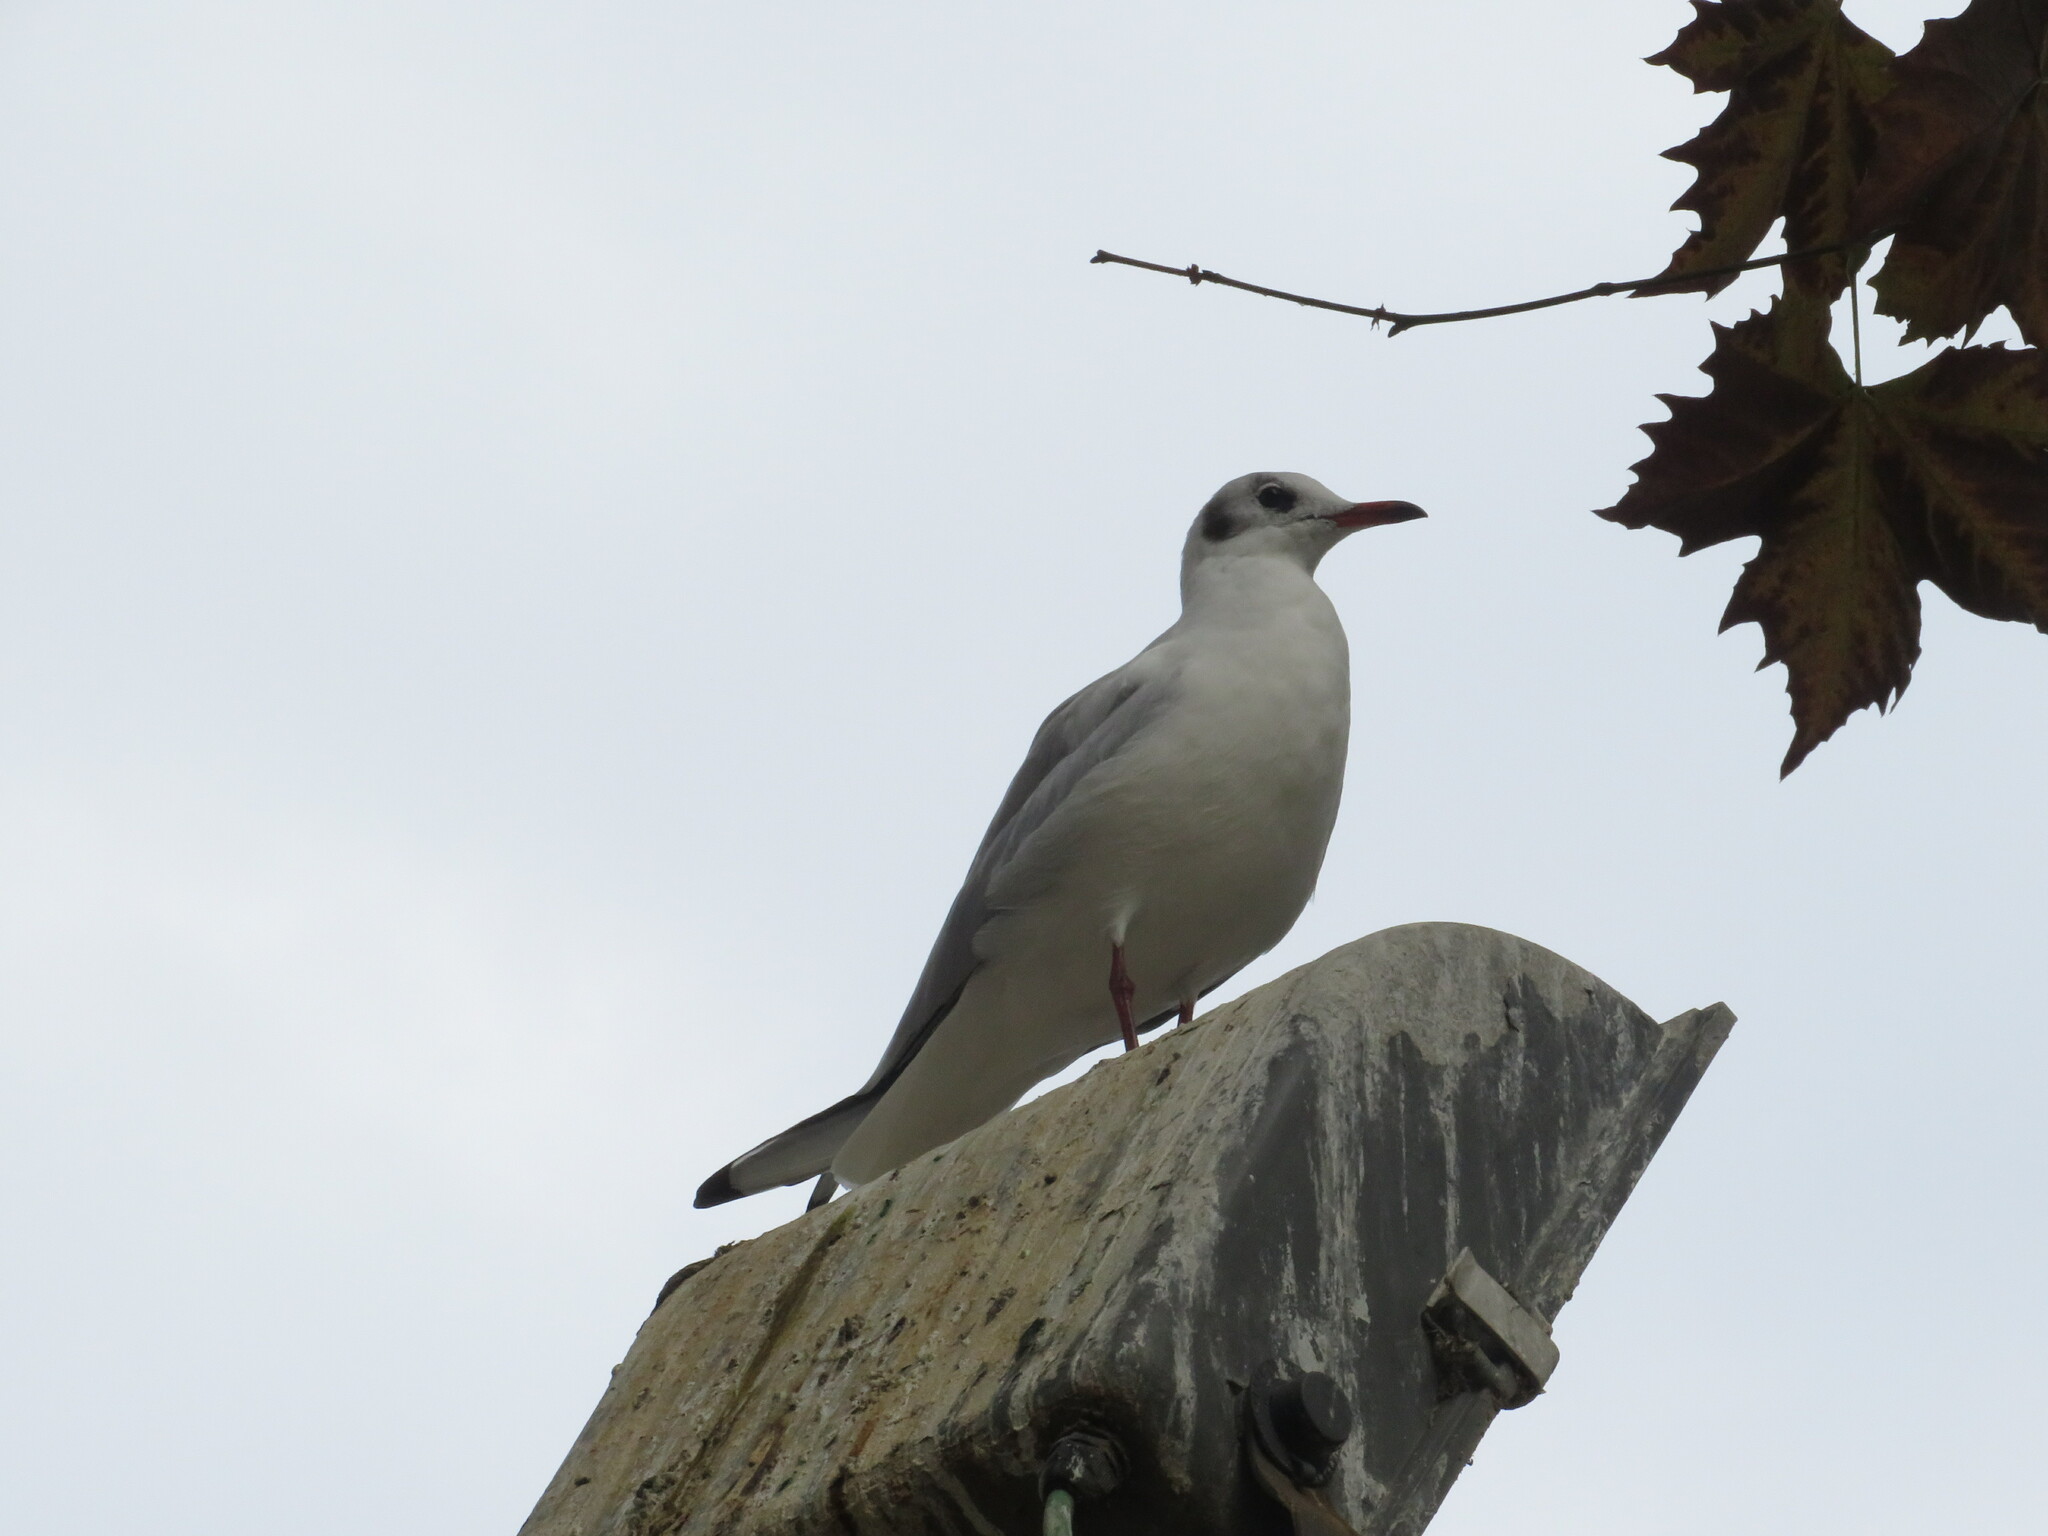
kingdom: Animalia
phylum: Chordata
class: Aves
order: Charadriiformes
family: Laridae
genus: Chroicocephalus
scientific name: Chroicocephalus ridibundus
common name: Black-headed gull
